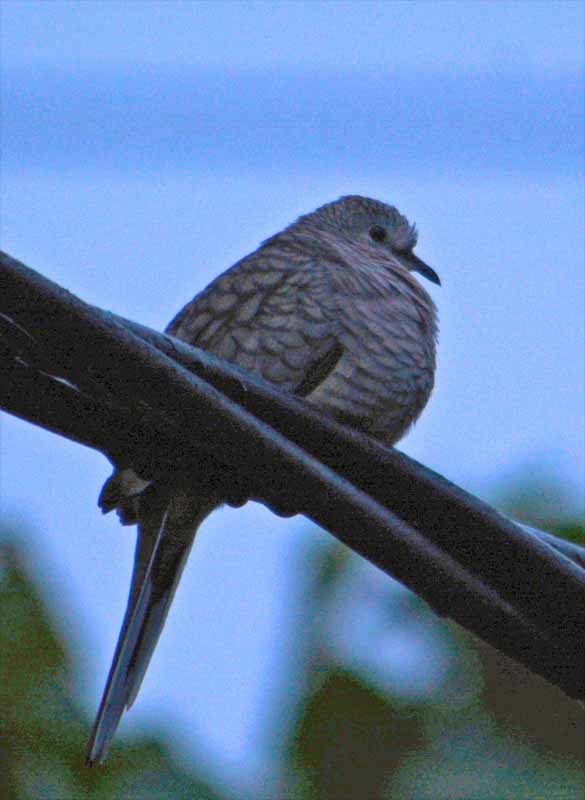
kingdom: Animalia
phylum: Chordata
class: Aves
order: Columbiformes
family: Columbidae
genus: Columbina
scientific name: Columbina inca
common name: Inca dove
